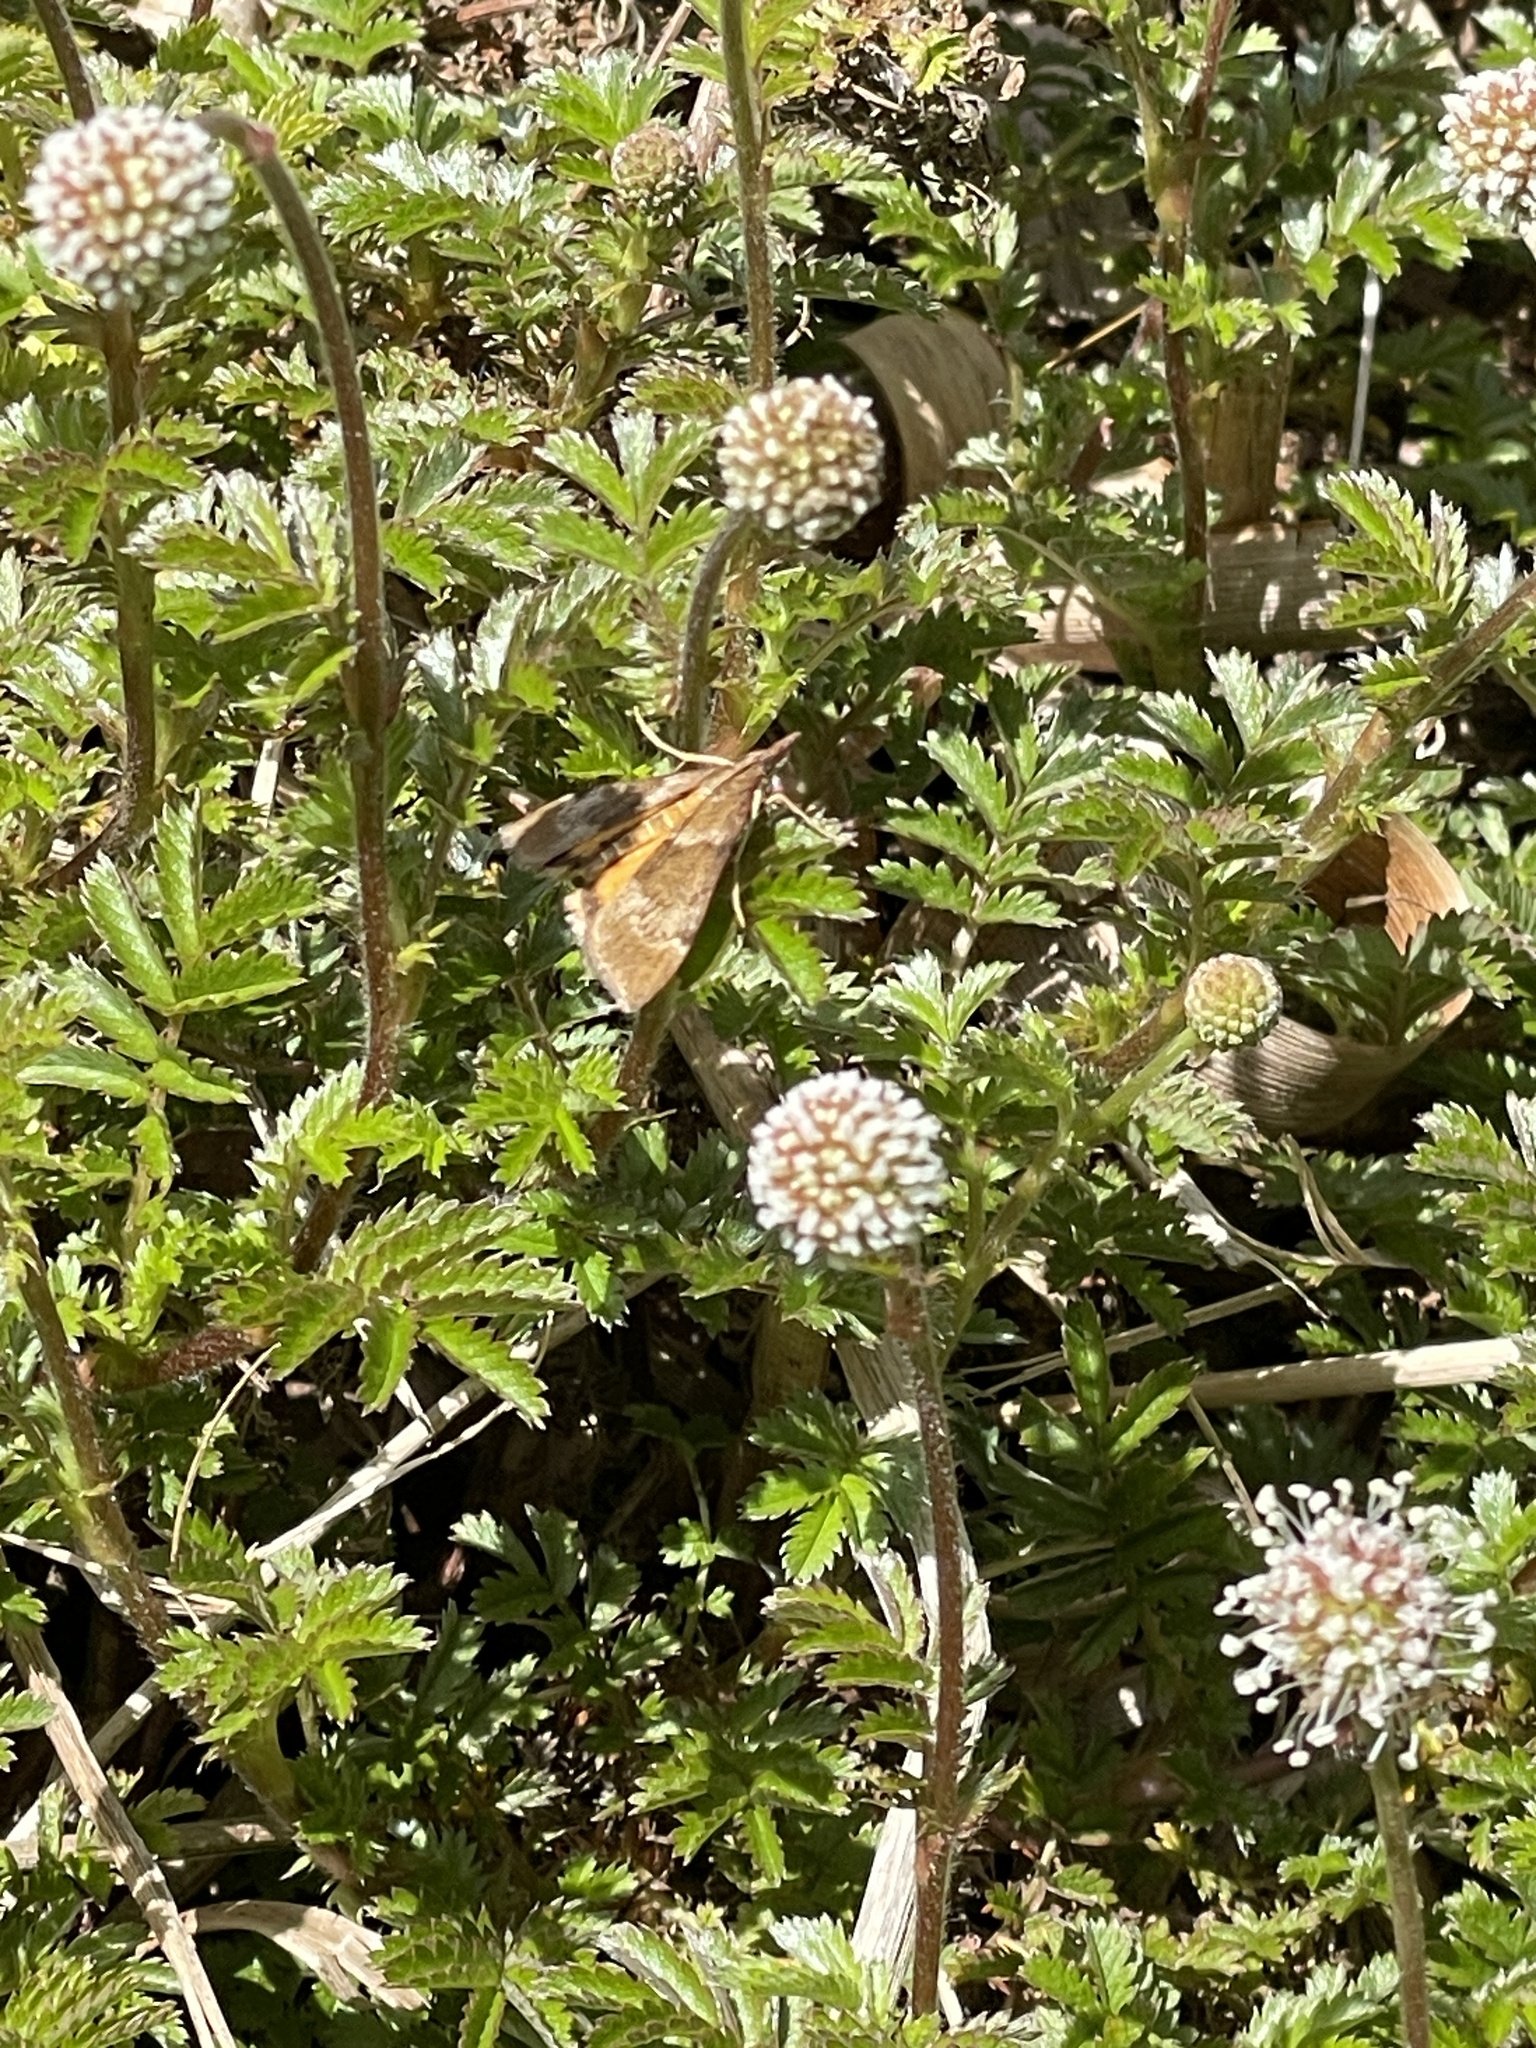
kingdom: Animalia
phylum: Arthropoda
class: Insecta
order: Lepidoptera
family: Crambidae
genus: Uresiphita
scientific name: Uresiphita
